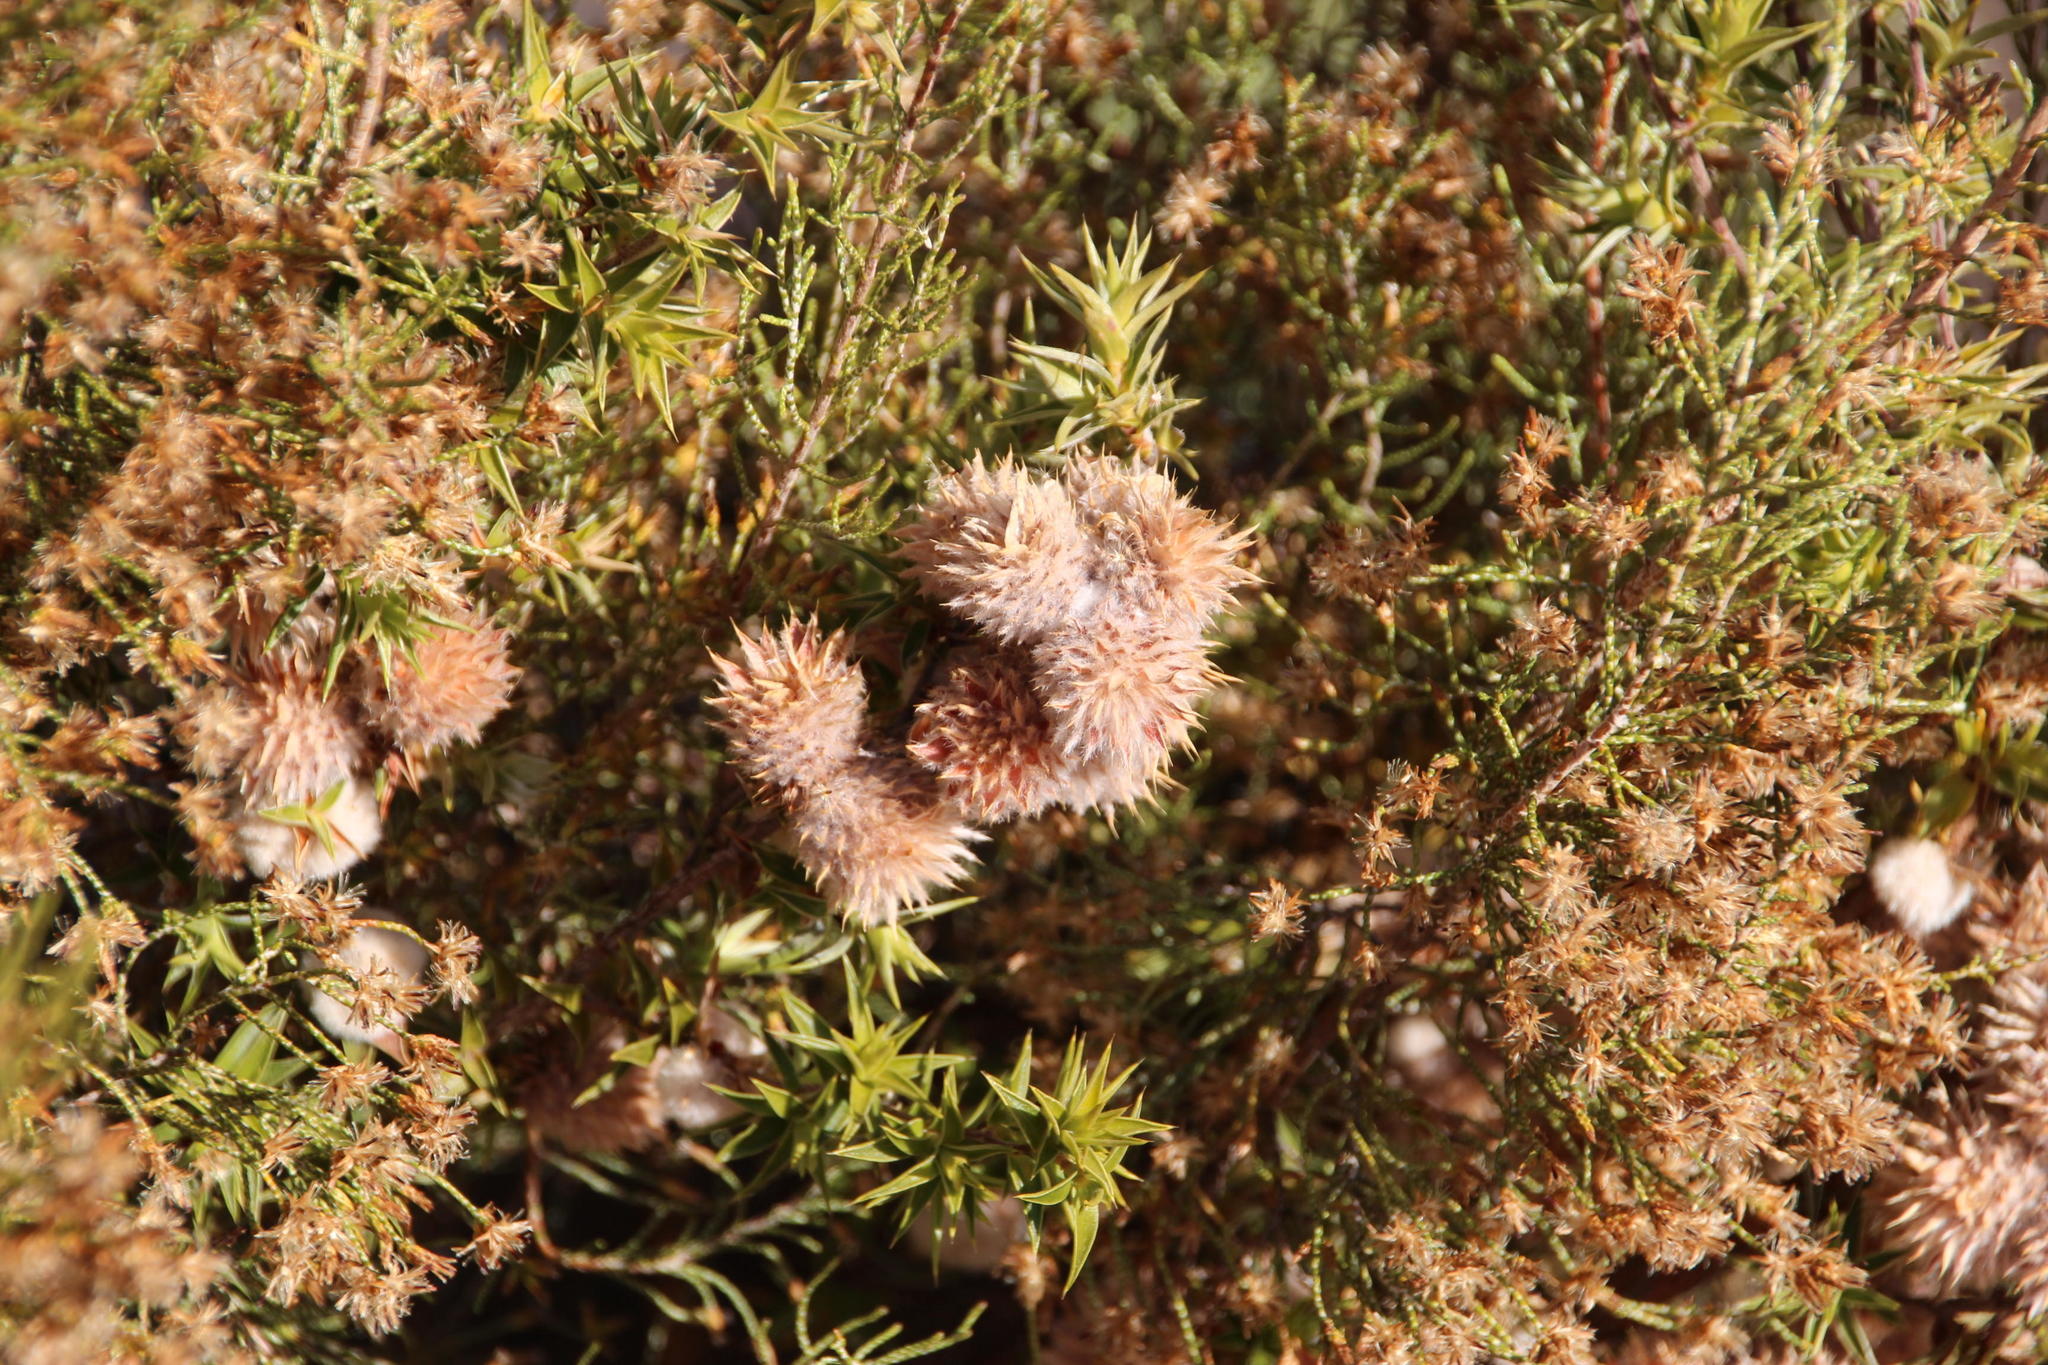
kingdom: Plantae
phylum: Tracheophyta
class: Magnoliopsida
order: Rosales
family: Rosaceae
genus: Cliffortia
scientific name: Cliffortia ruscifolia
